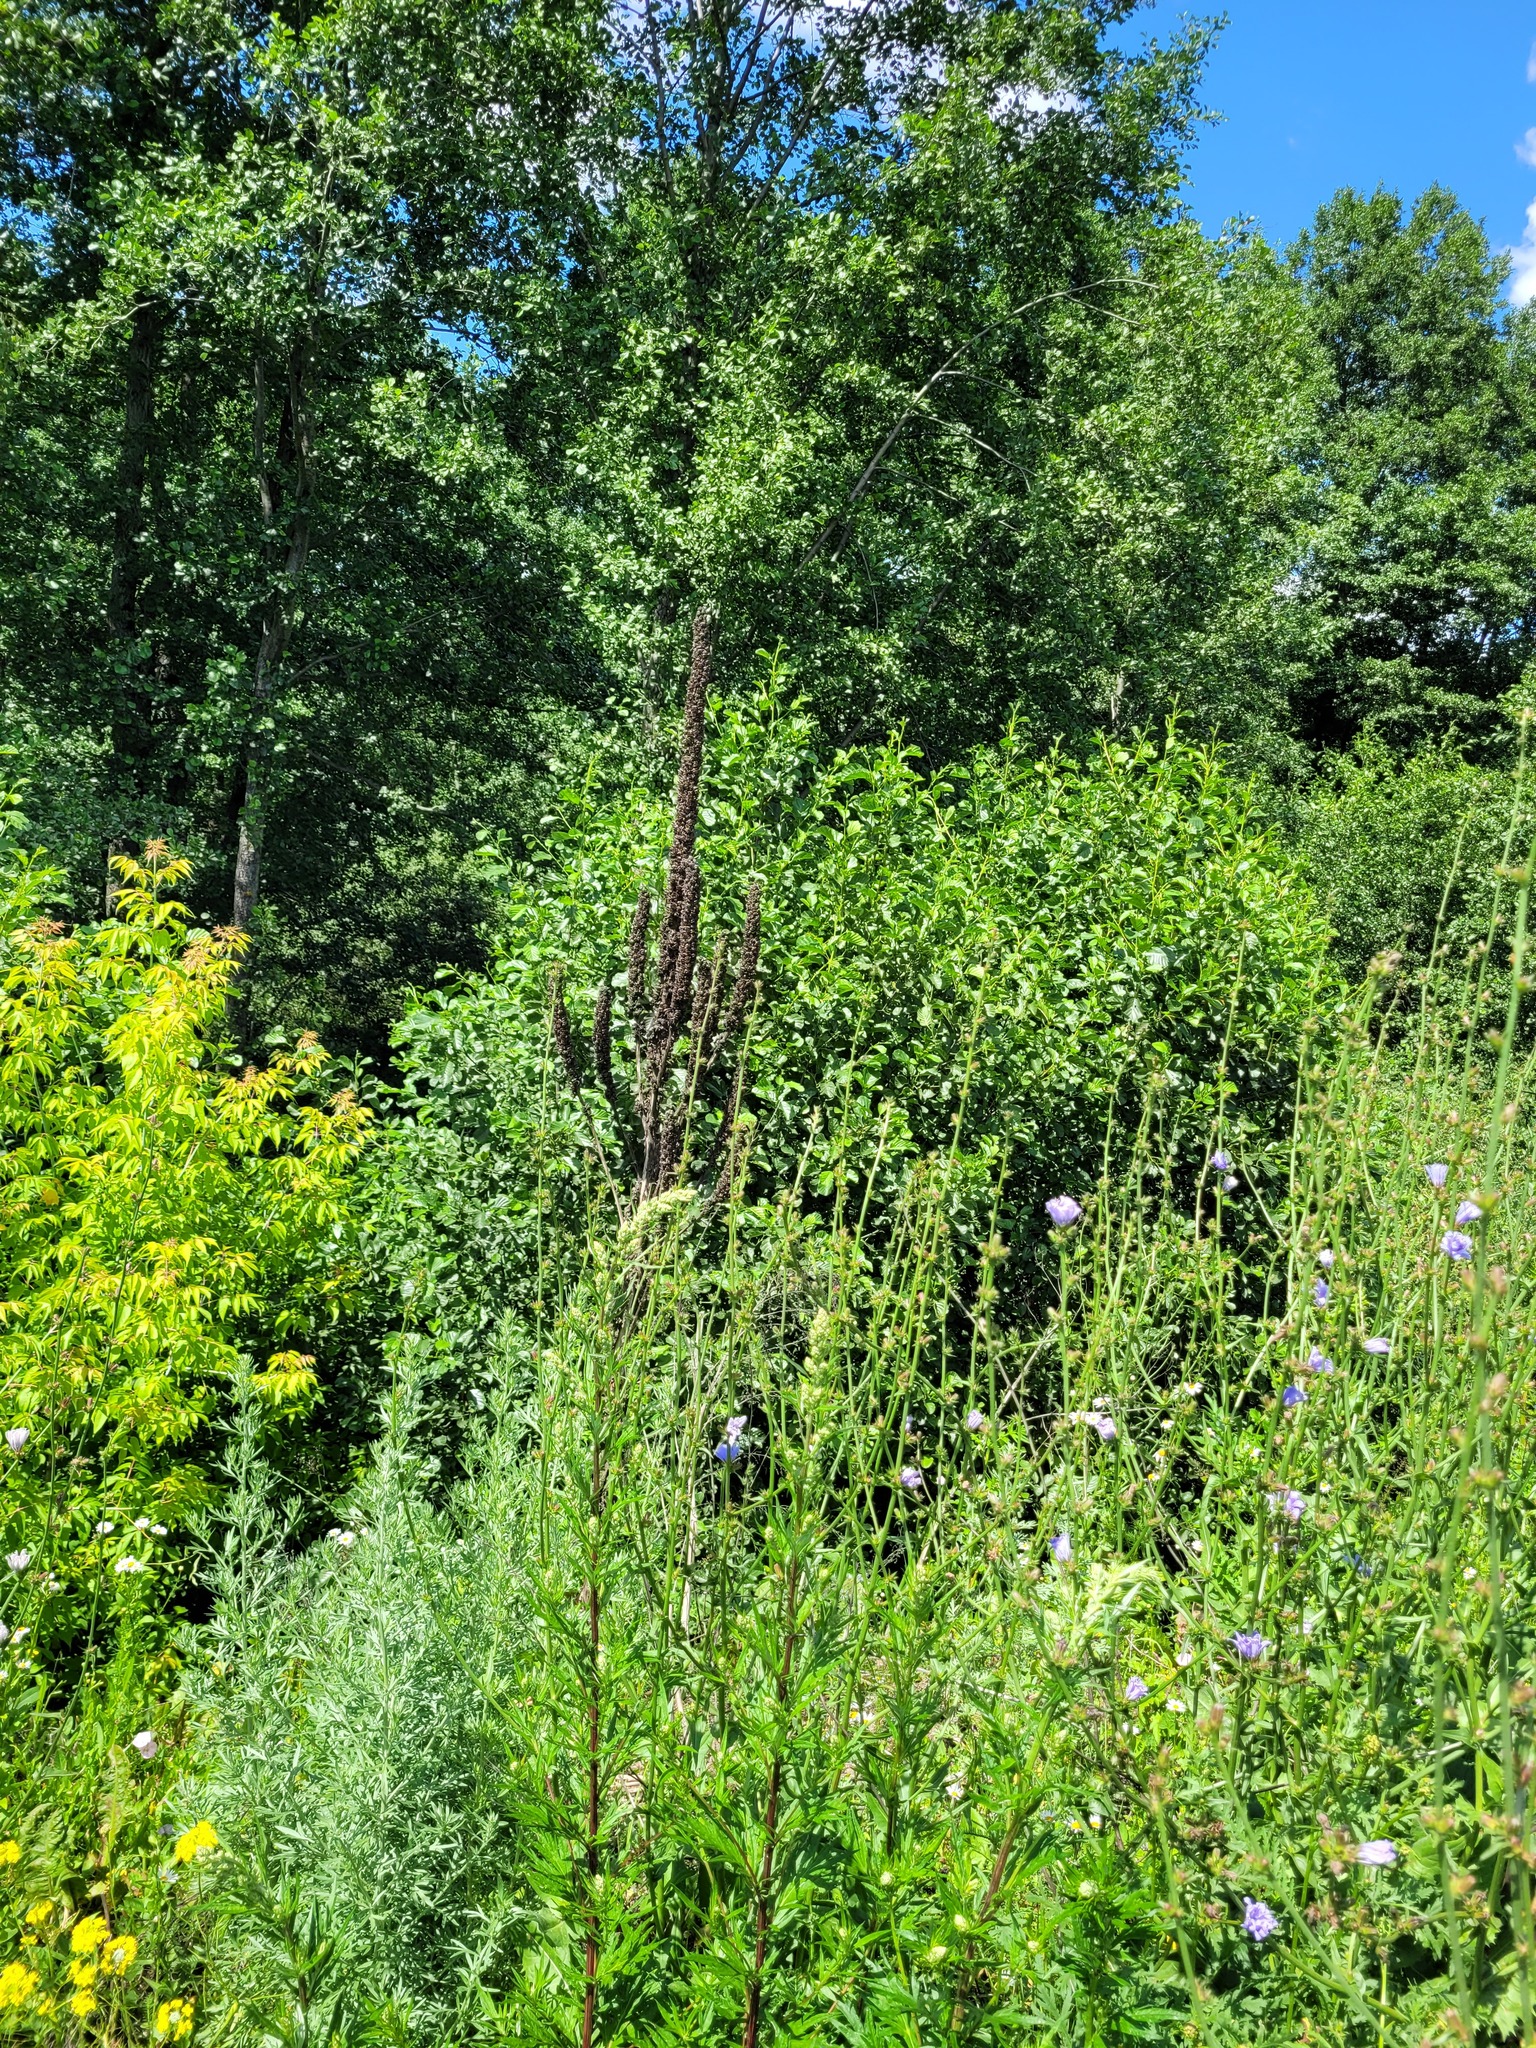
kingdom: Plantae
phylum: Tracheophyta
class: Magnoliopsida
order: Lamiales
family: Scrophulariaceae
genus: Verbascum
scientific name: Verbascum thapsus
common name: Common mullein
